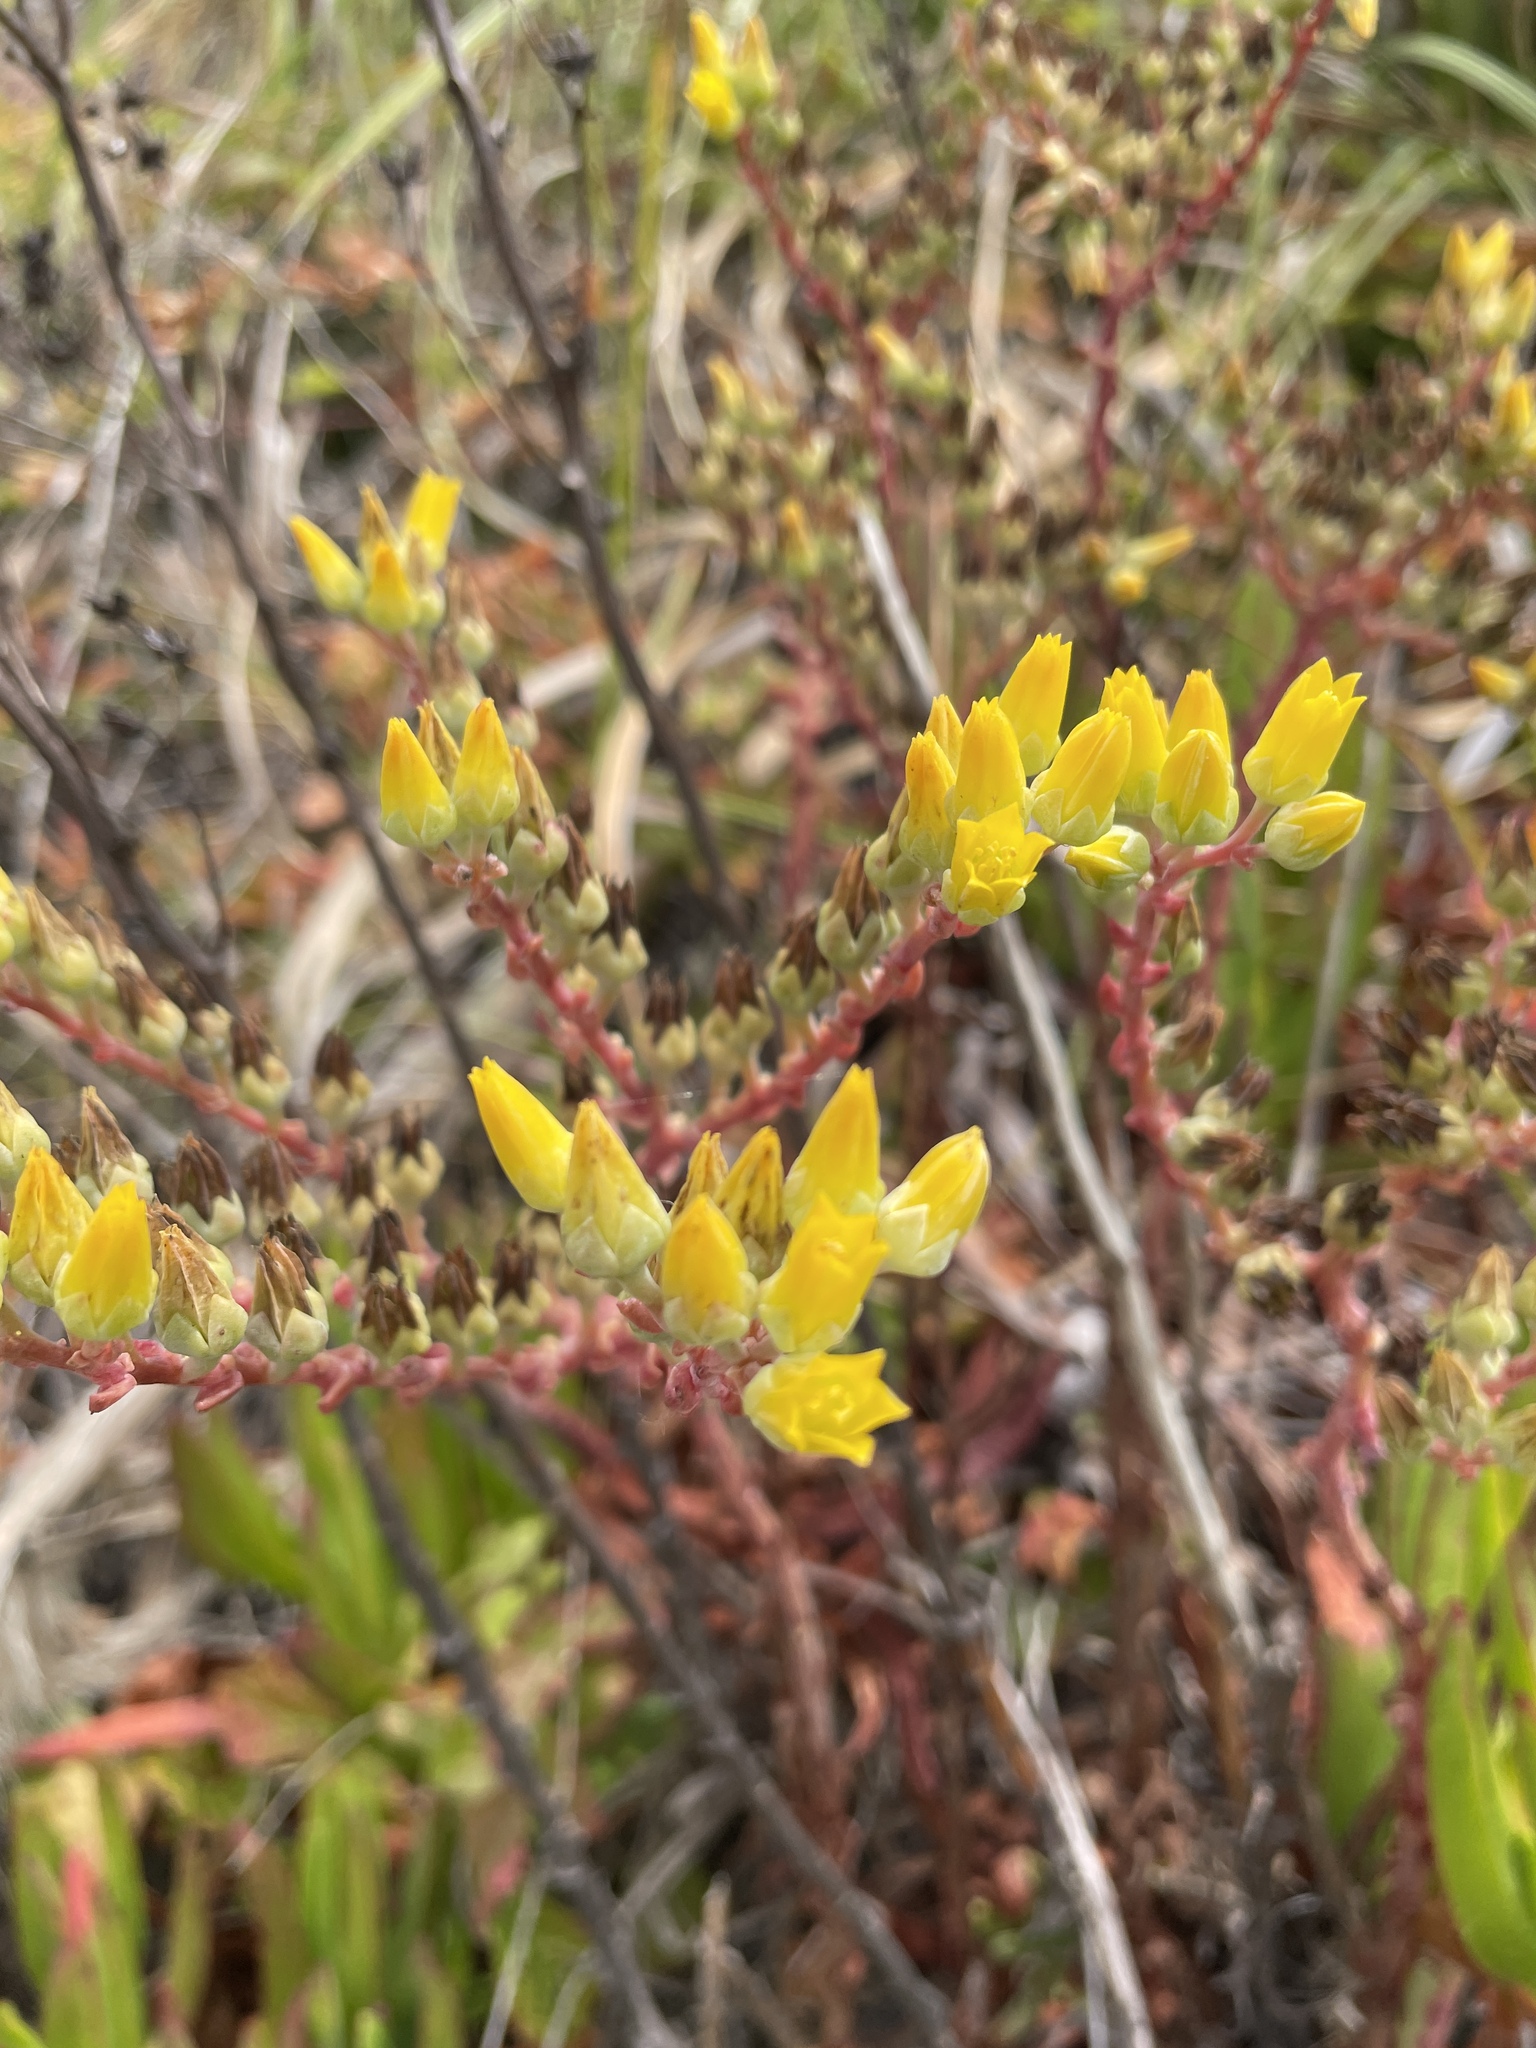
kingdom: Plantae
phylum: Tracheophyta
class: Magnoliopsida
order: Saxifragales
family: Crassulaceae
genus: Dudleya
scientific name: Dudleya caespitosa
